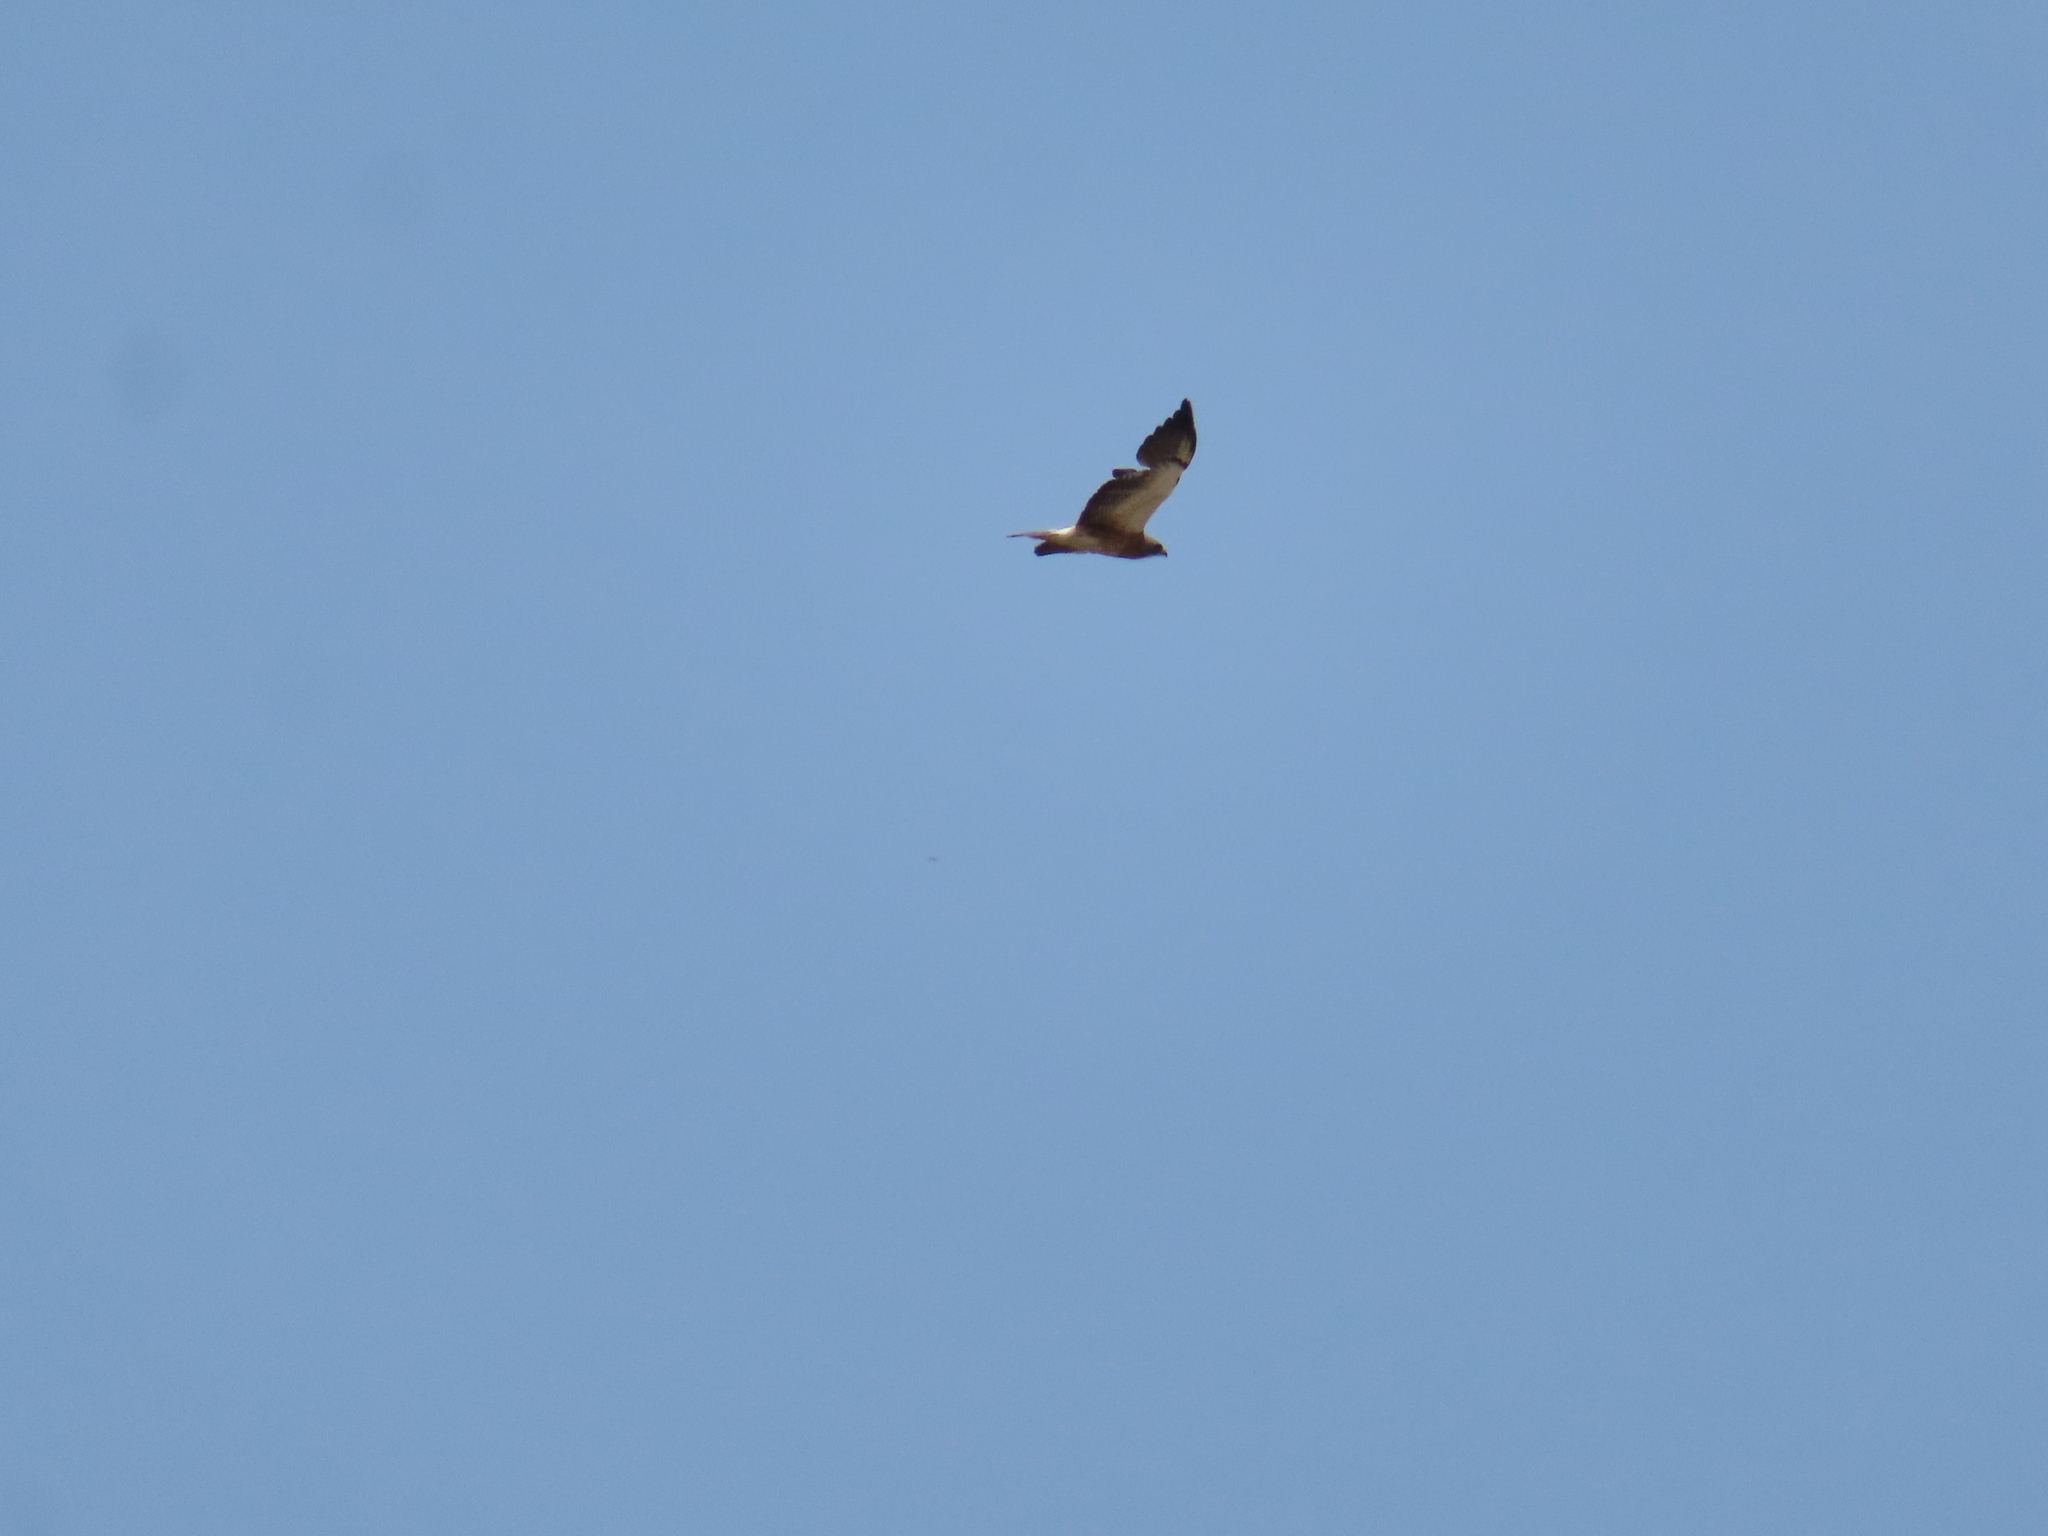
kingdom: Animalia
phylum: Chordata
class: Aves
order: Accipitriformes
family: Accipitridae
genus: Buteo
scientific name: Buteo swainsoni
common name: Swainson's hawk
